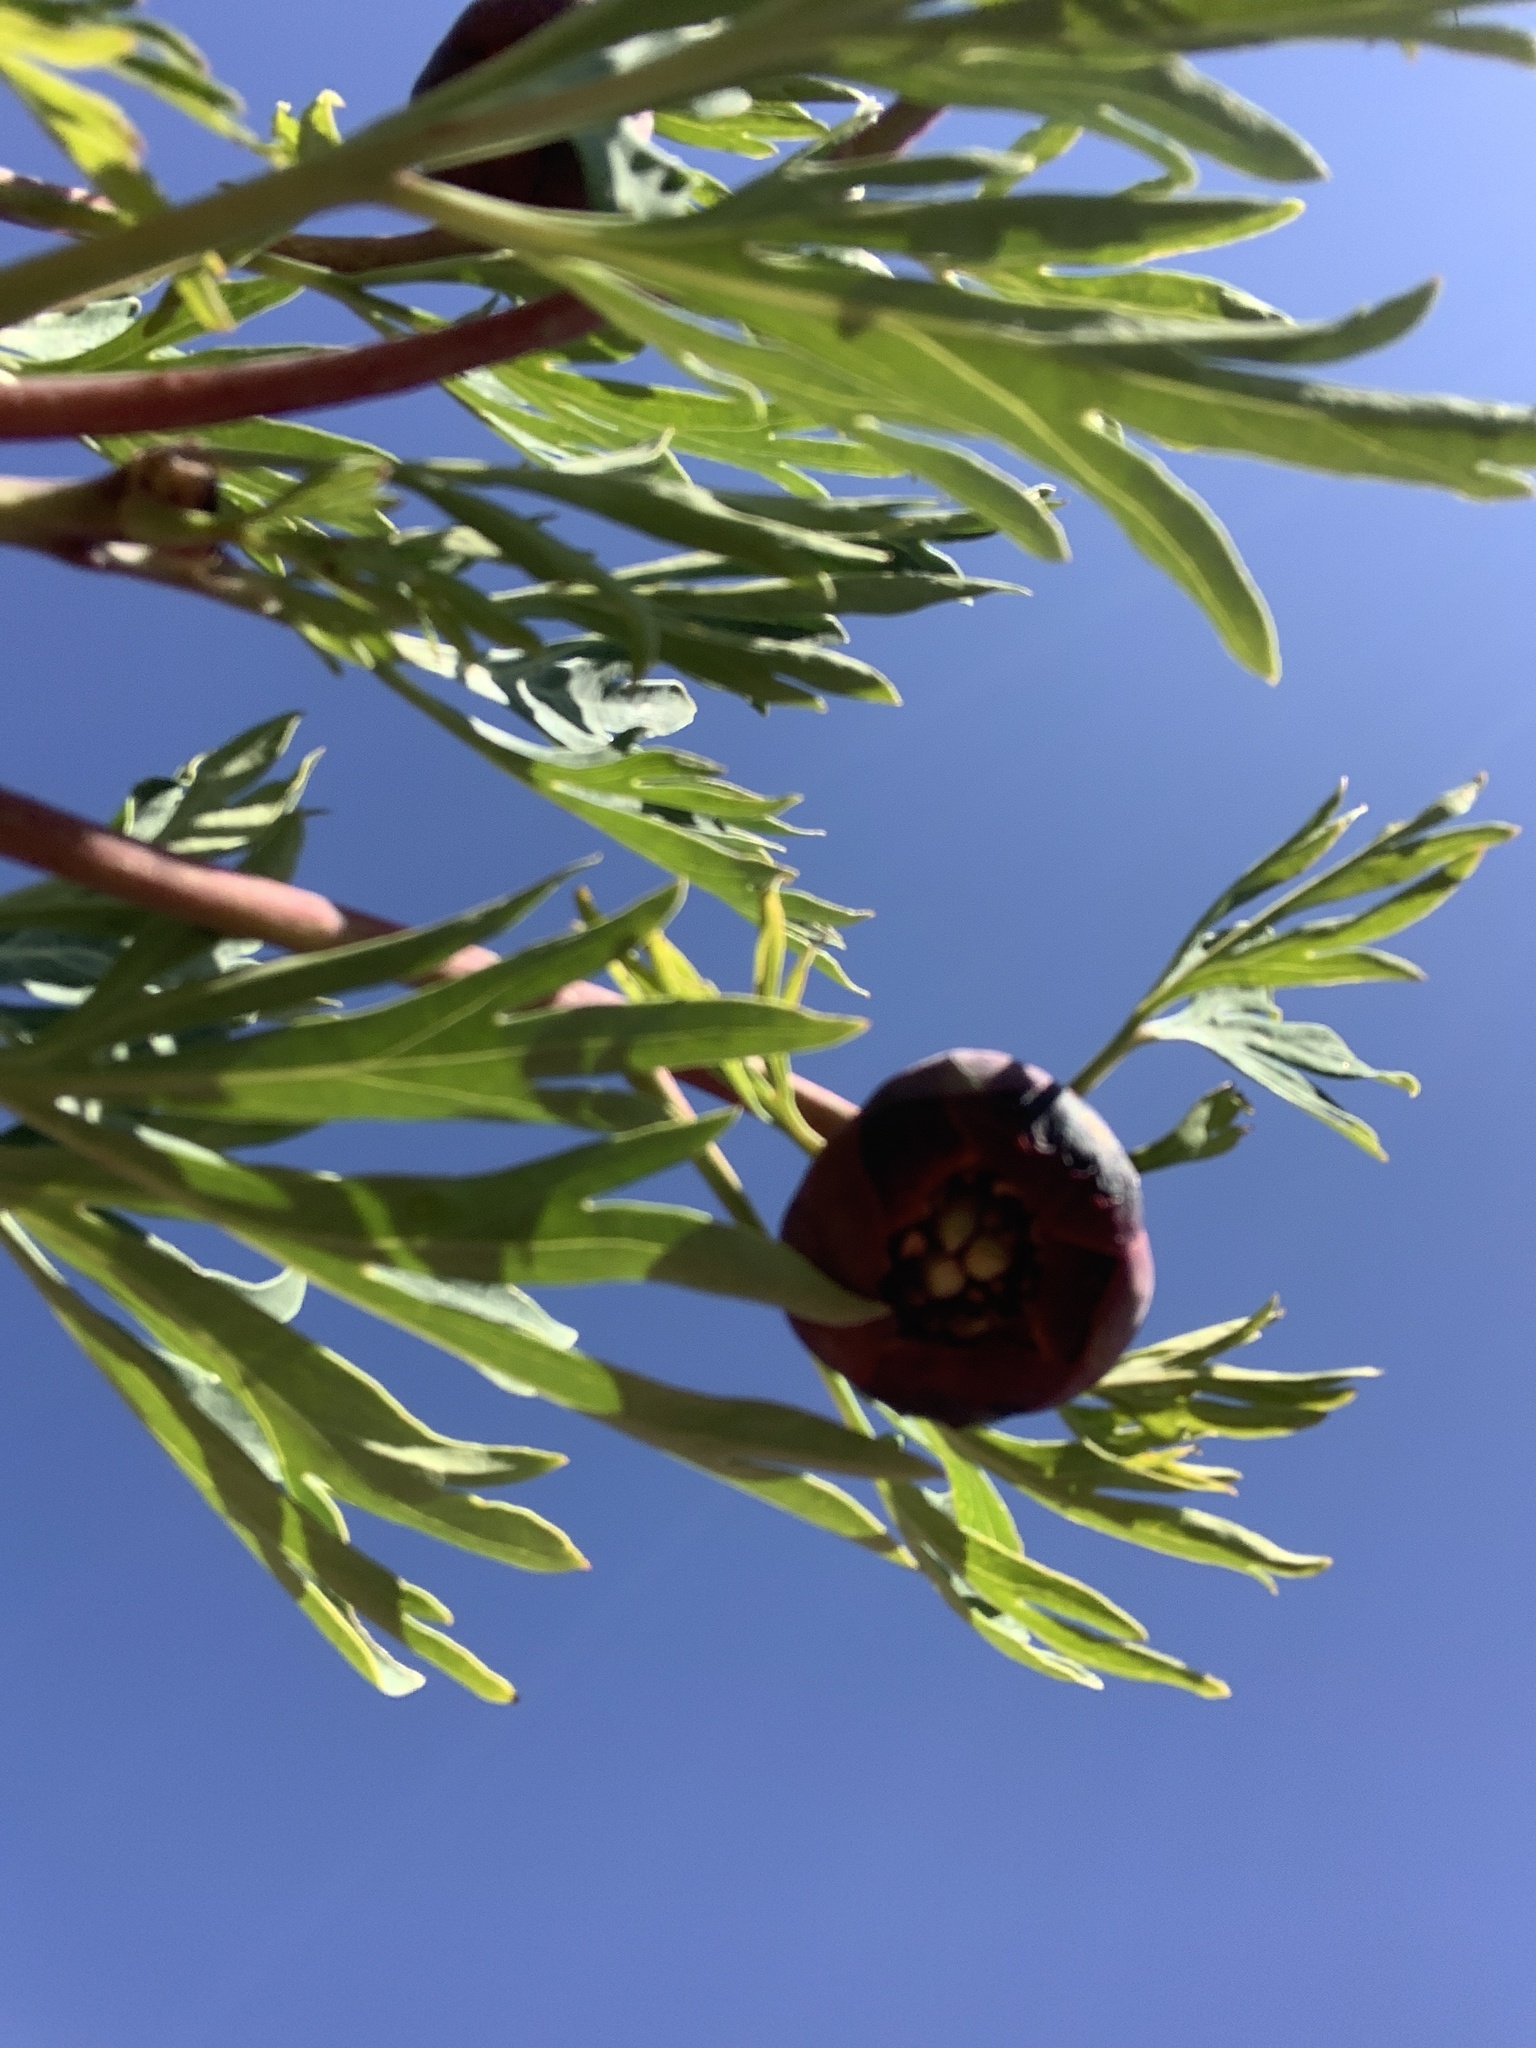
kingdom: Plantae
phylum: Tracheophyta
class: Magnoliopsida
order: Saxifragales
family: Paeoniaceae
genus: Paeonia
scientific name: Paeonia californica
